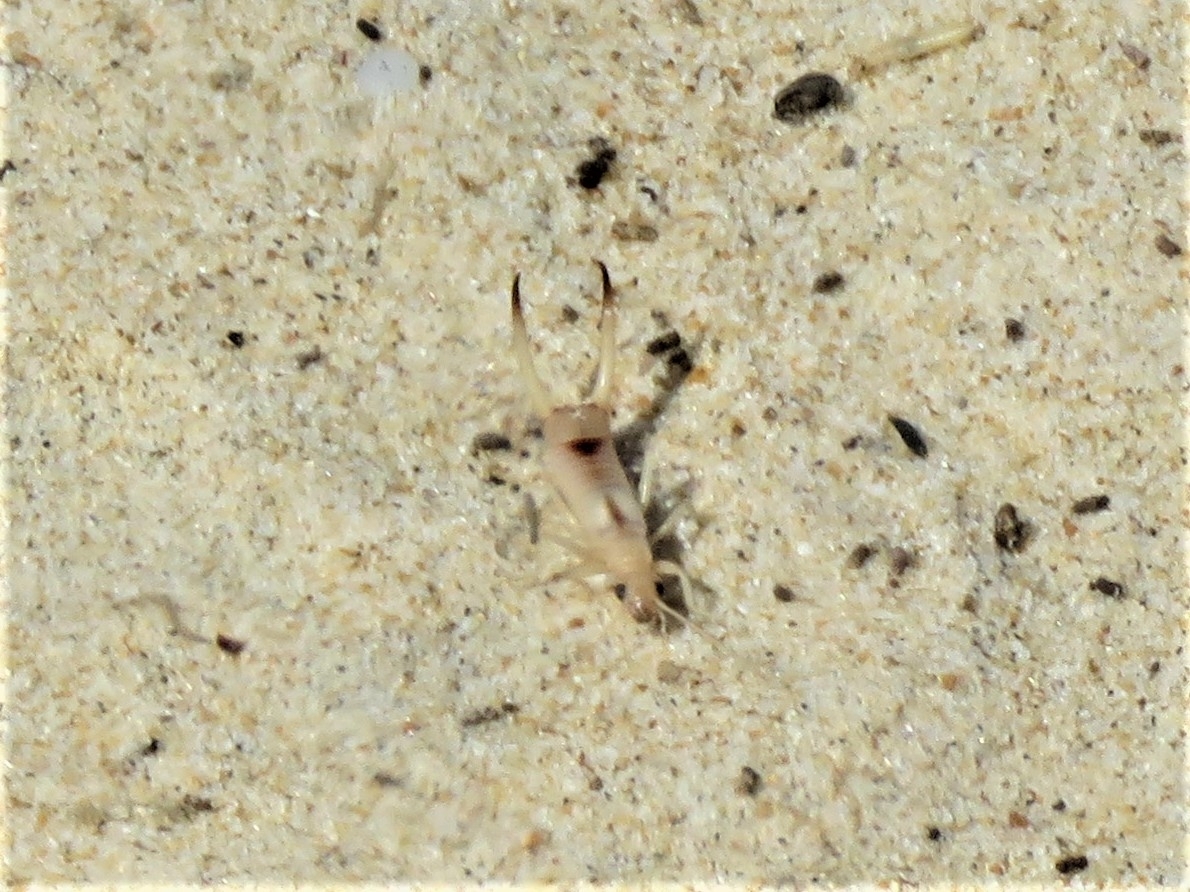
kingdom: Animalia
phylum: Arthropoda
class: Insecta
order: Dermaptera
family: Labiduridae
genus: Labidura
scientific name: Labidura riparia
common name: Striped earwig
